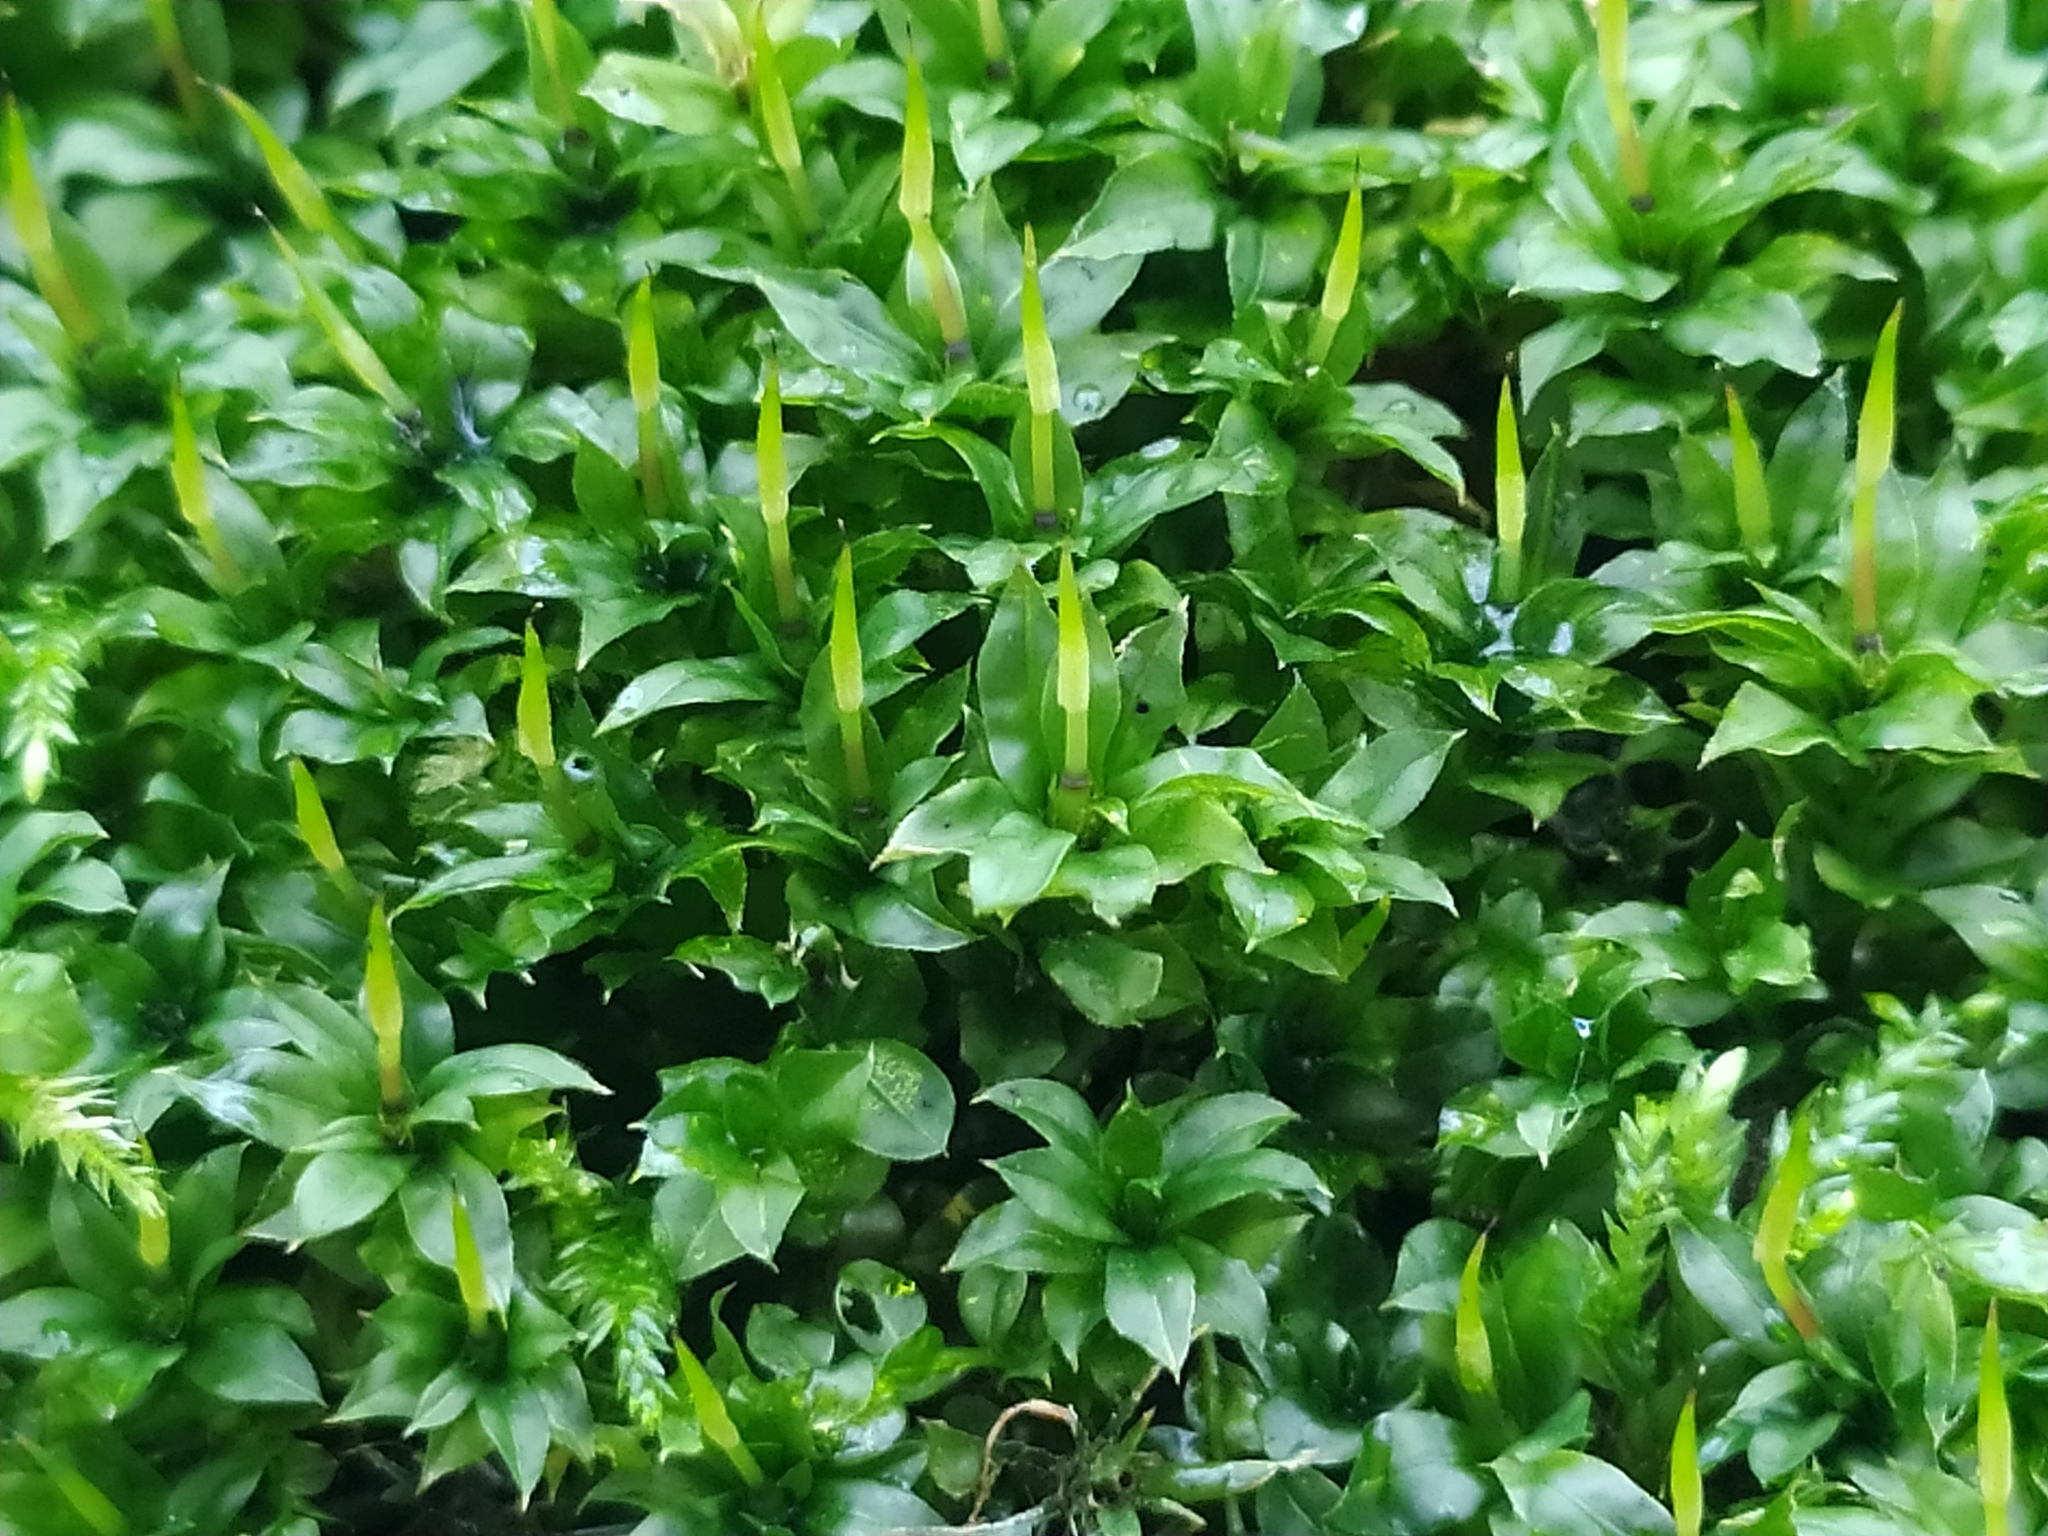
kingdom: Plantae
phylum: Bryophyta
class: Bryopsida
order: Bryales
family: Mniaceae
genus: Plagiomnium
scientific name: Plagiomnium cuspidatum
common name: Woodsy leafy moss
